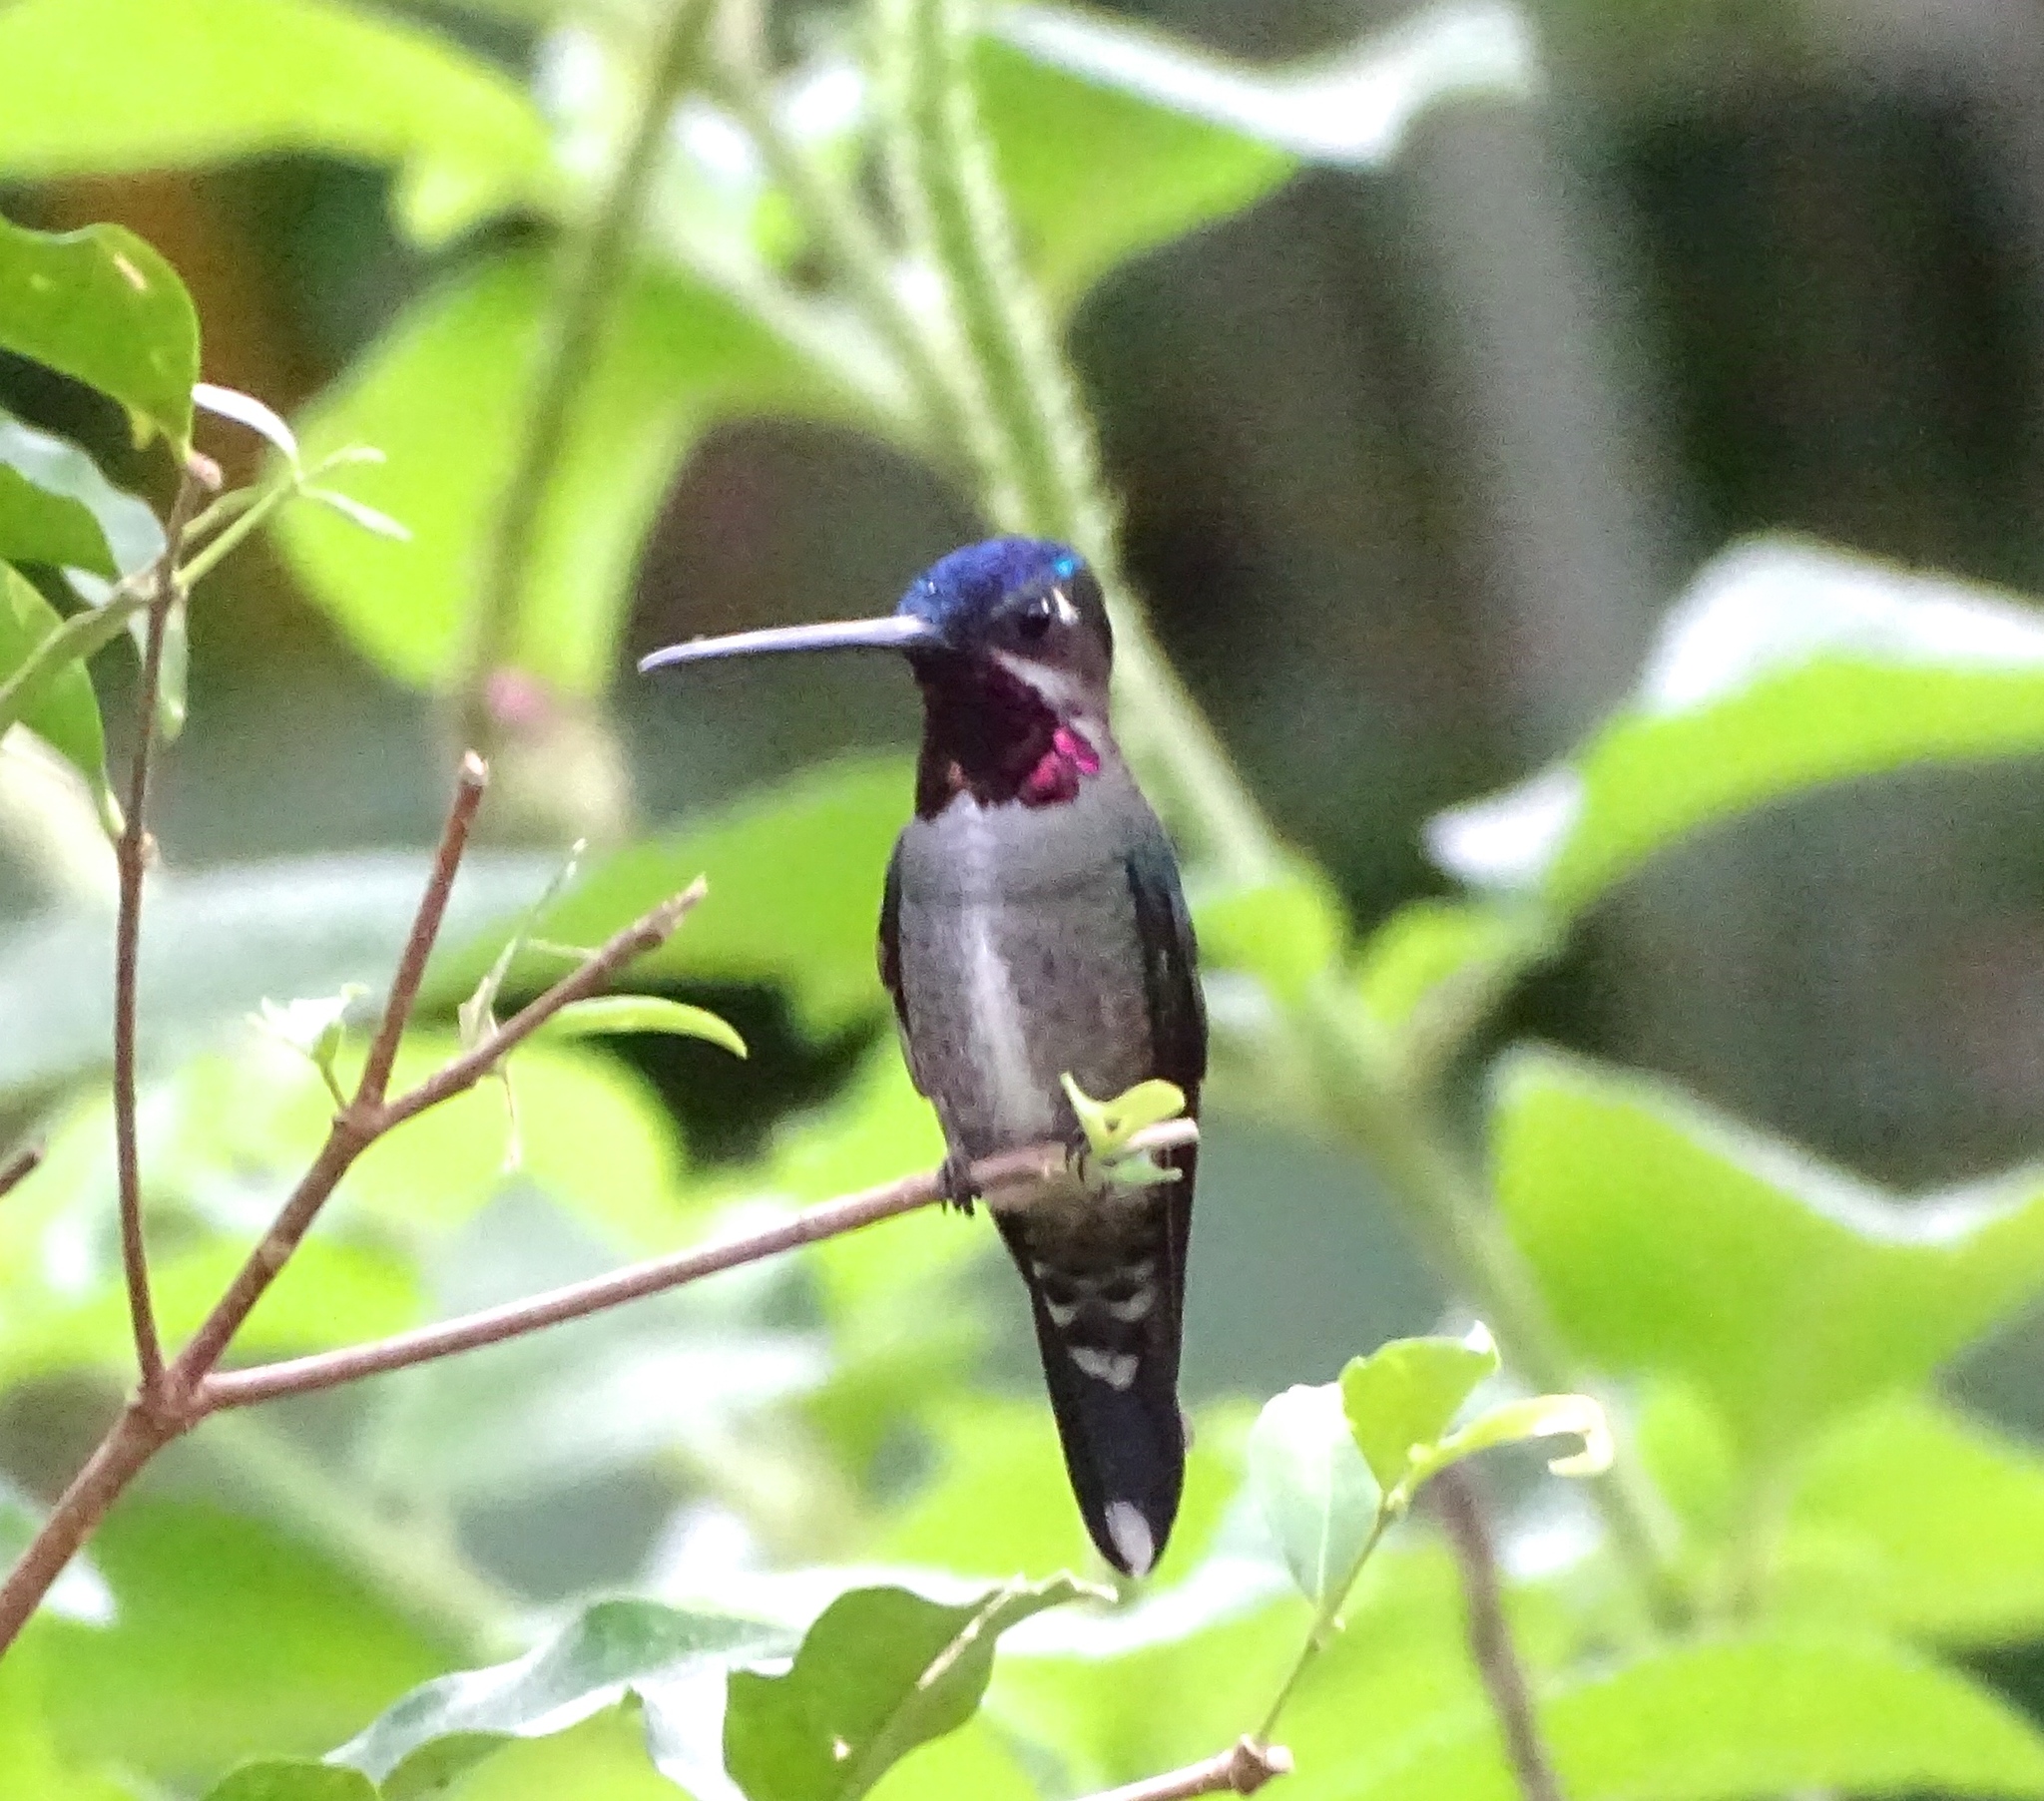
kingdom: Animalia
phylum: Chordata
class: Aves
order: Apodiformes
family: Trochilidae
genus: Heliomaster
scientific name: Heliomaster longirostris
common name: Long-billed starthroat
